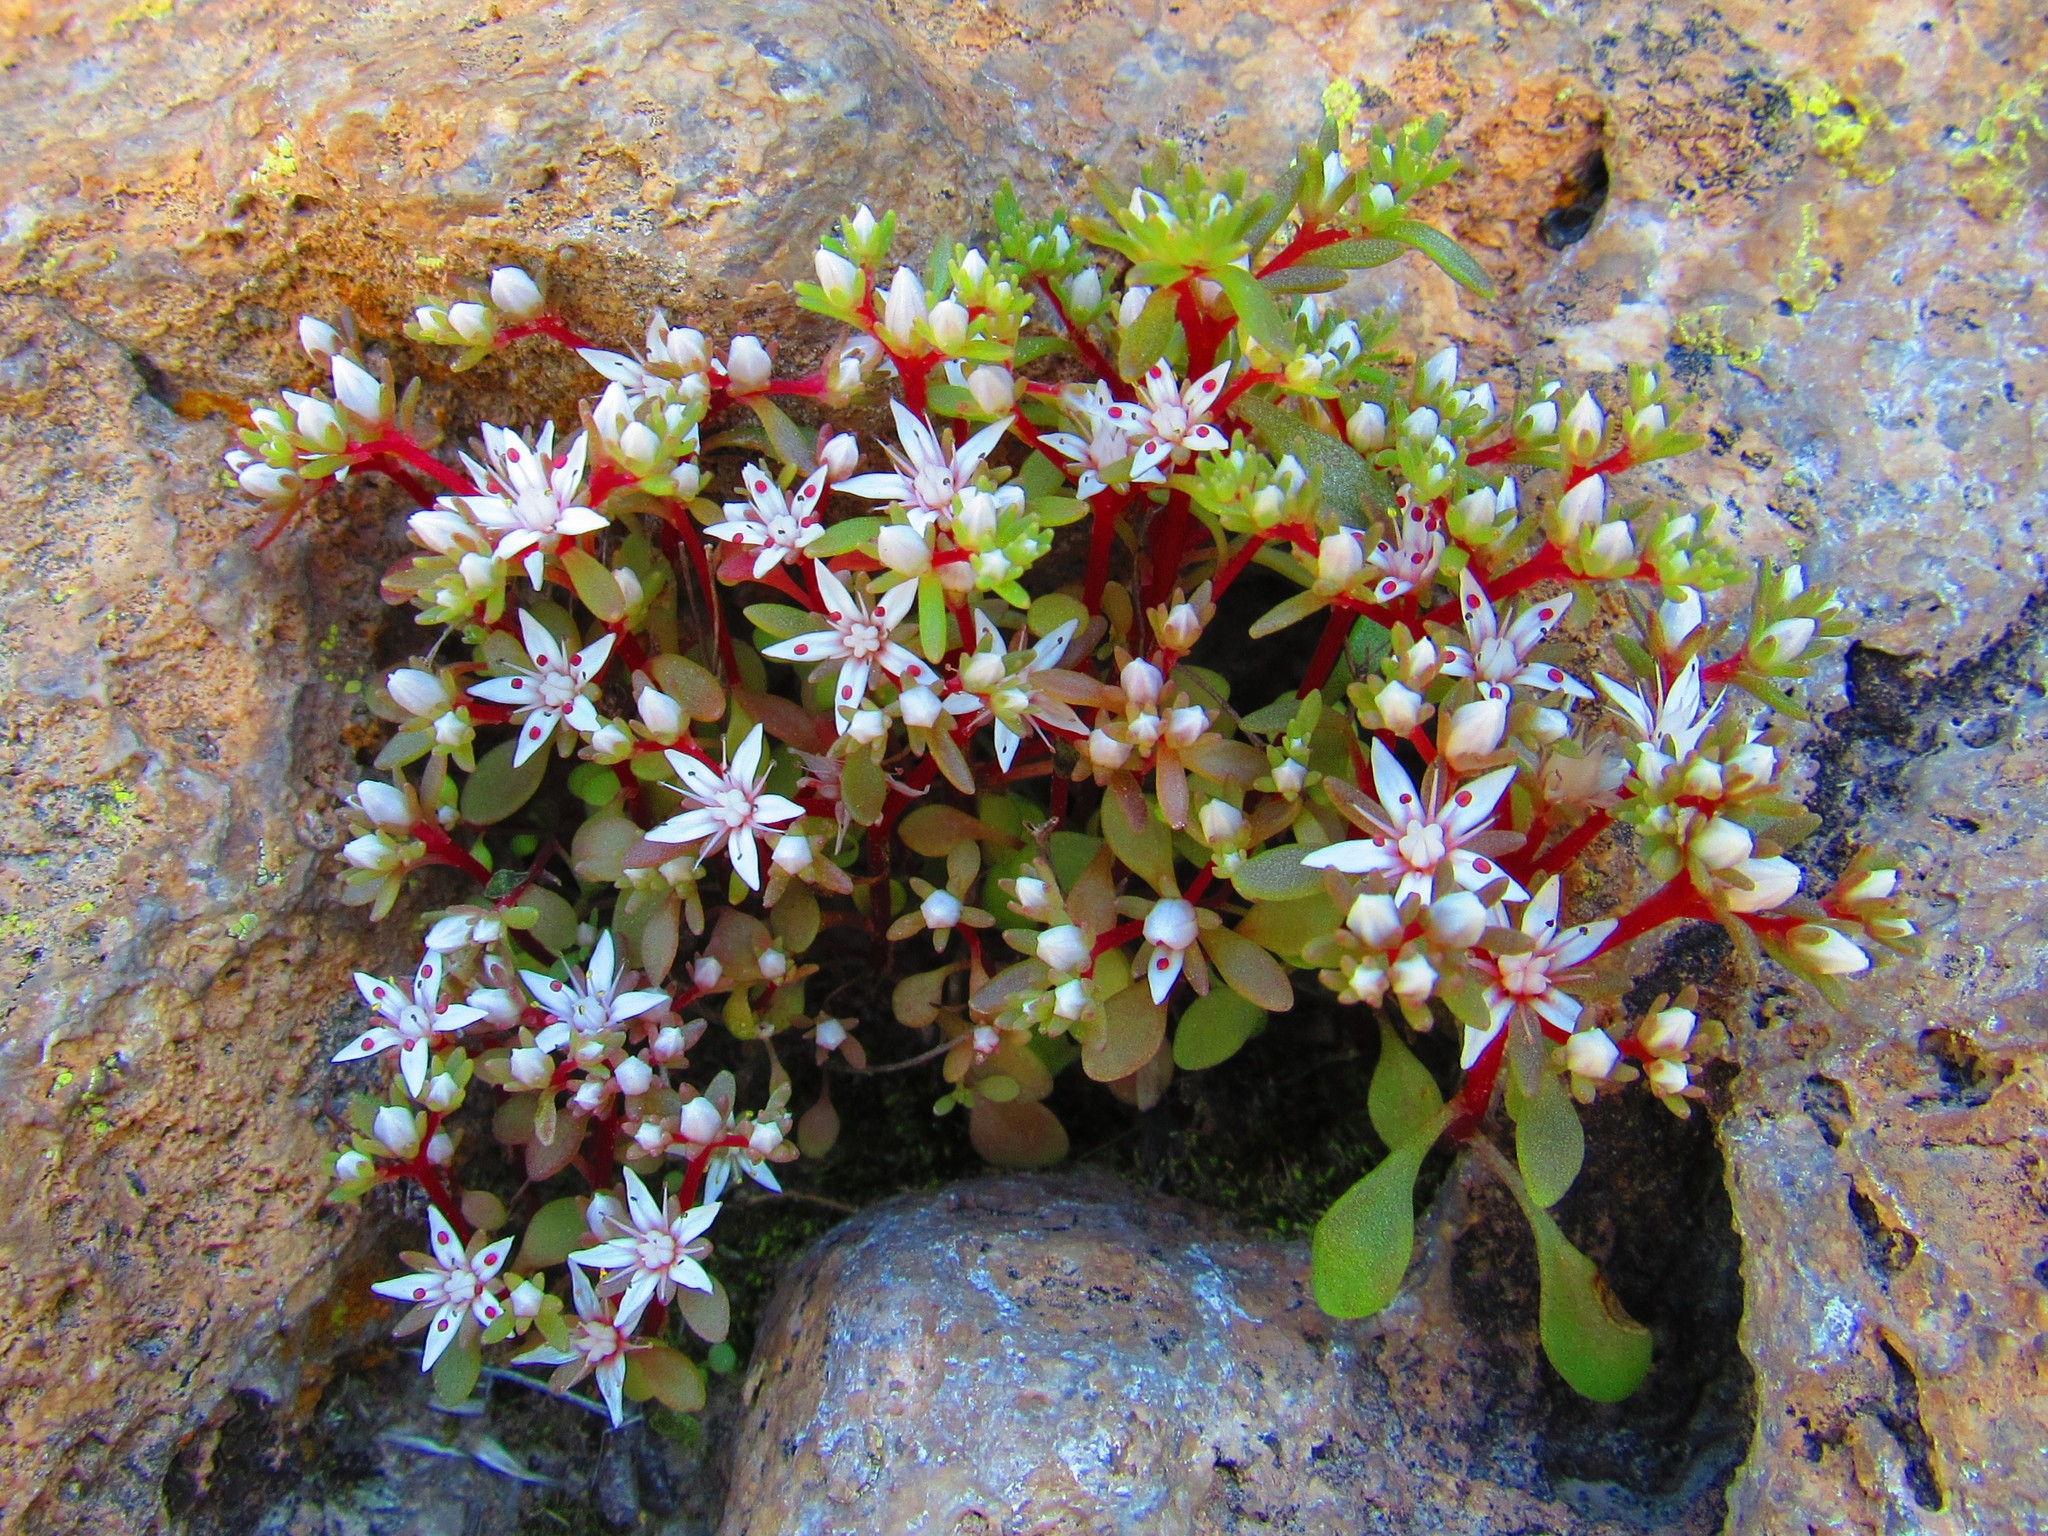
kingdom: Plantae
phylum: Tracheophyta
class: Magnoliopsida
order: Saxifragales
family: Crassulaceae
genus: Sedum
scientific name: Sedum jaliscanum
